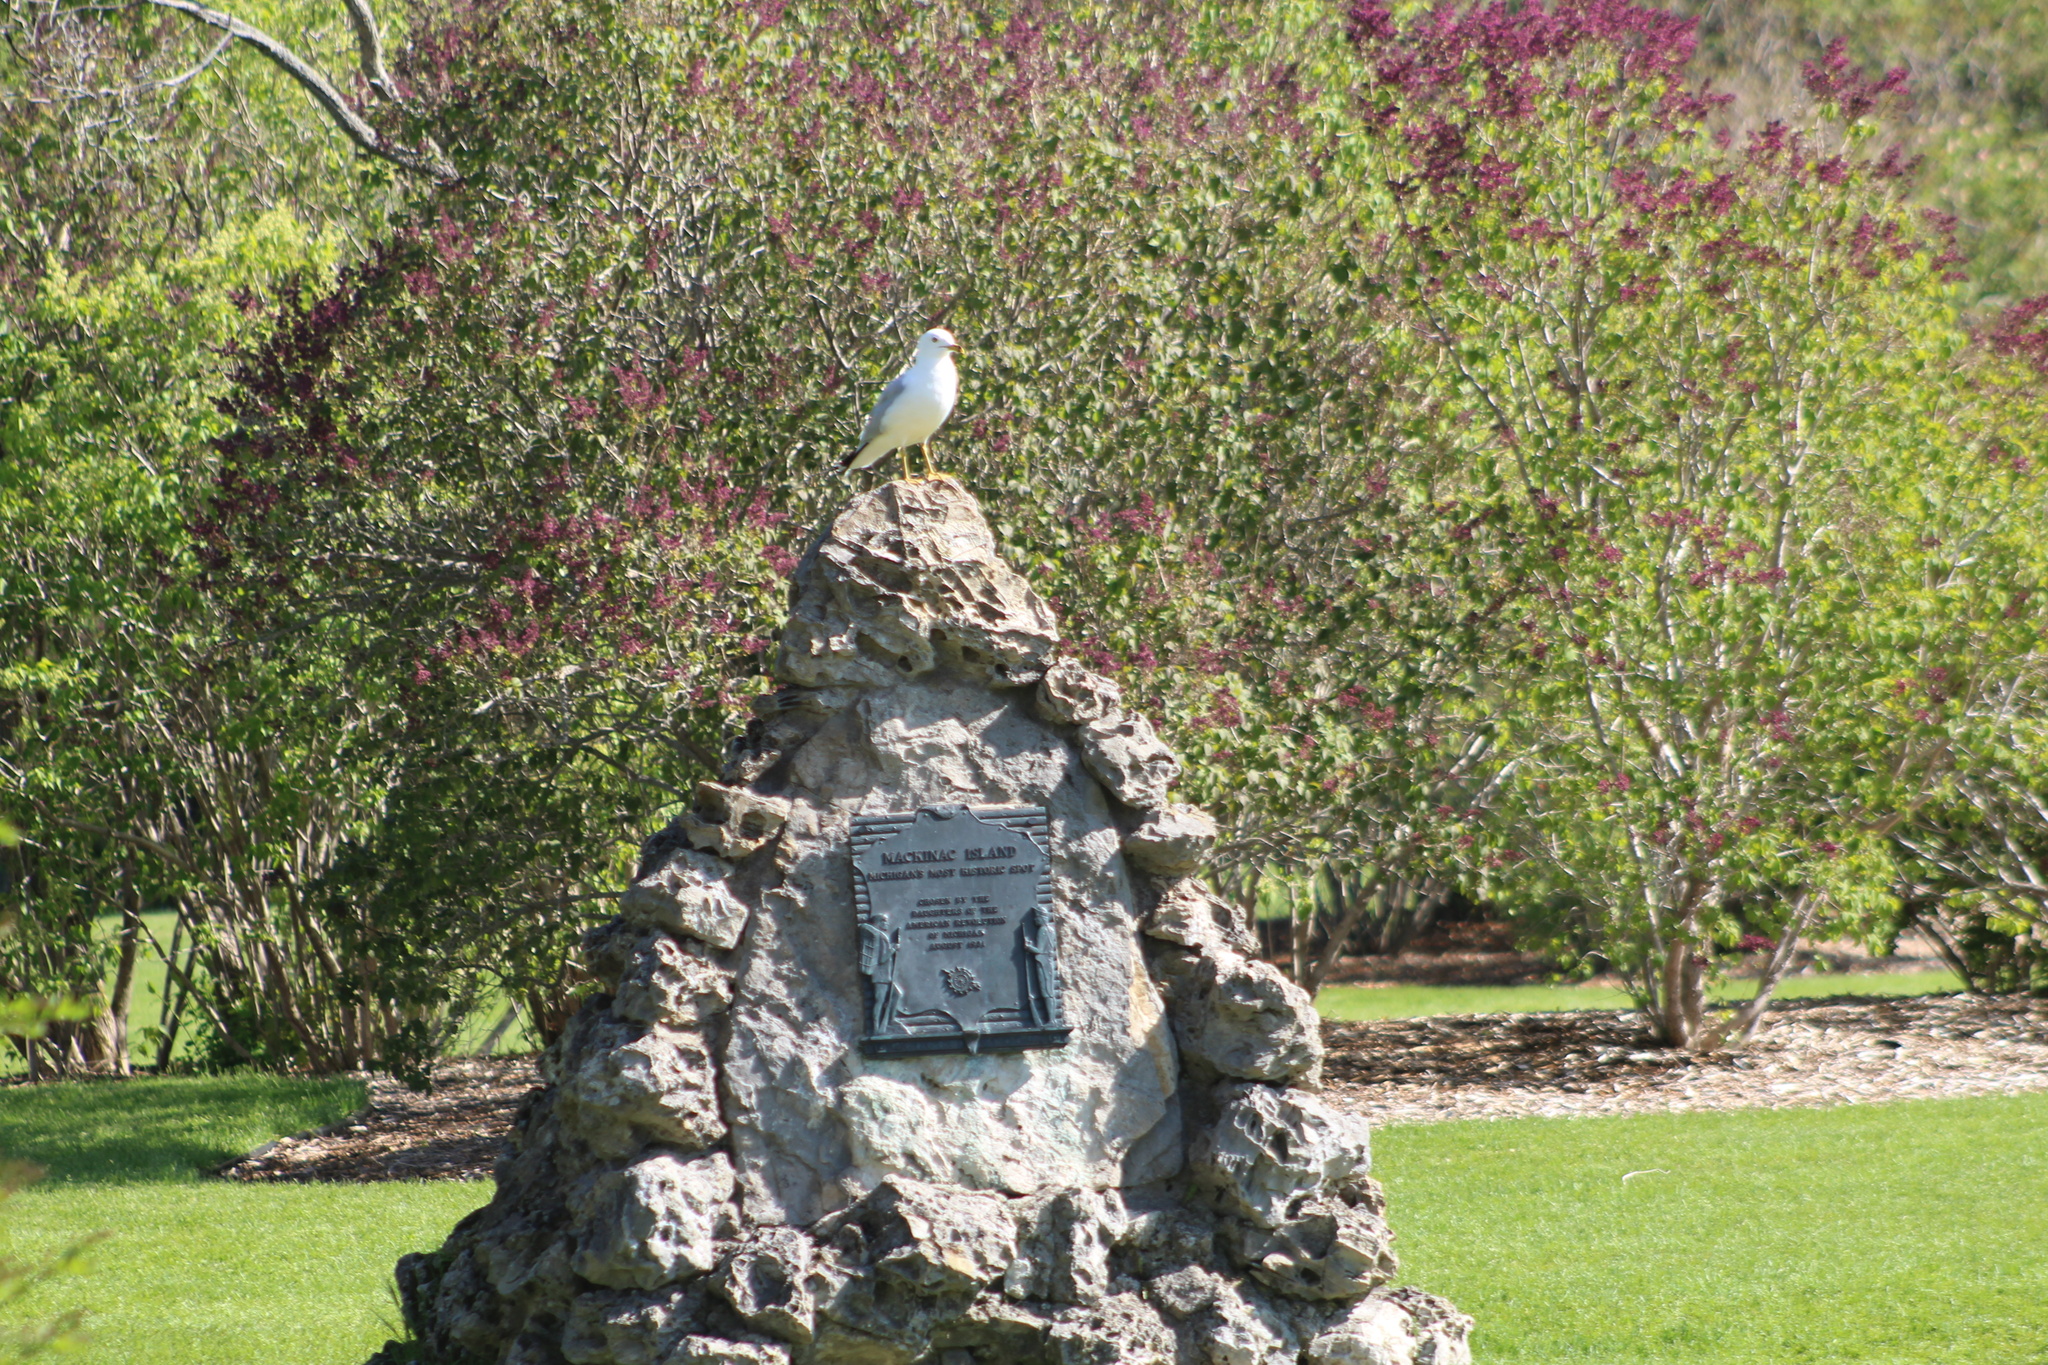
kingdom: Animalia
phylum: Chordata
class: Aves
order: Charadriiformes
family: Laridae
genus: Larus
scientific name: Larus delawarensis
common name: Ring-billed gull
